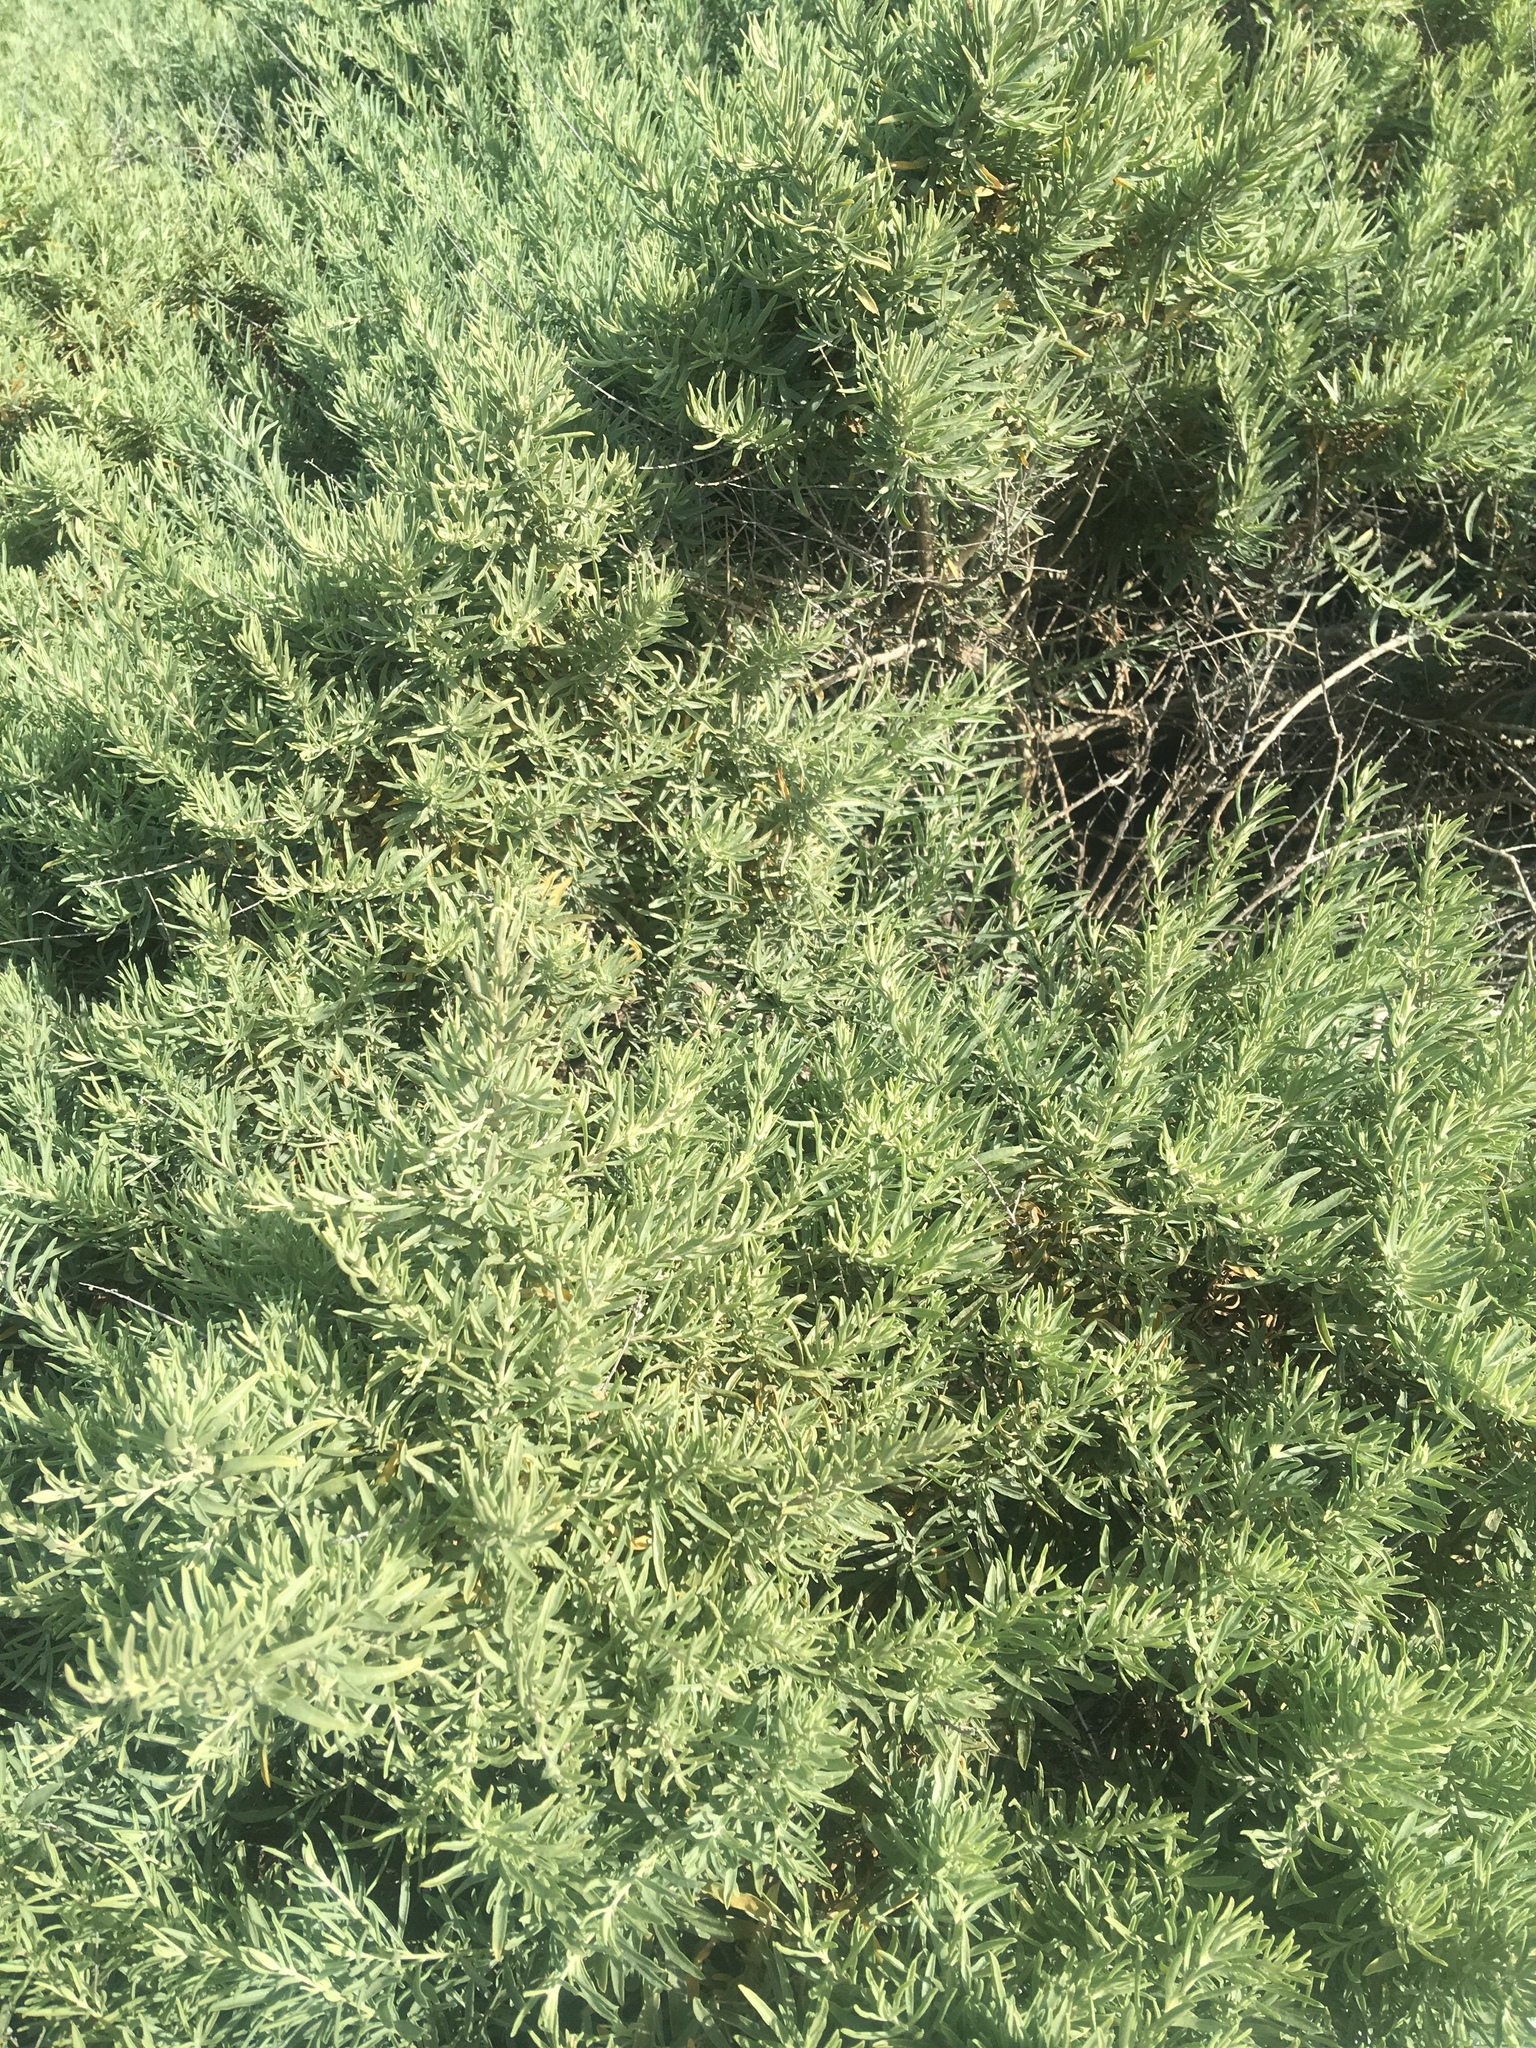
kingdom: Plantae
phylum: Tracheophyta
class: Magnoliopsida
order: Caryophyllales
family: Amaranthaceae
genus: Atriplex
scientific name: Atriplex canescens
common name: Four-wing saltbush
